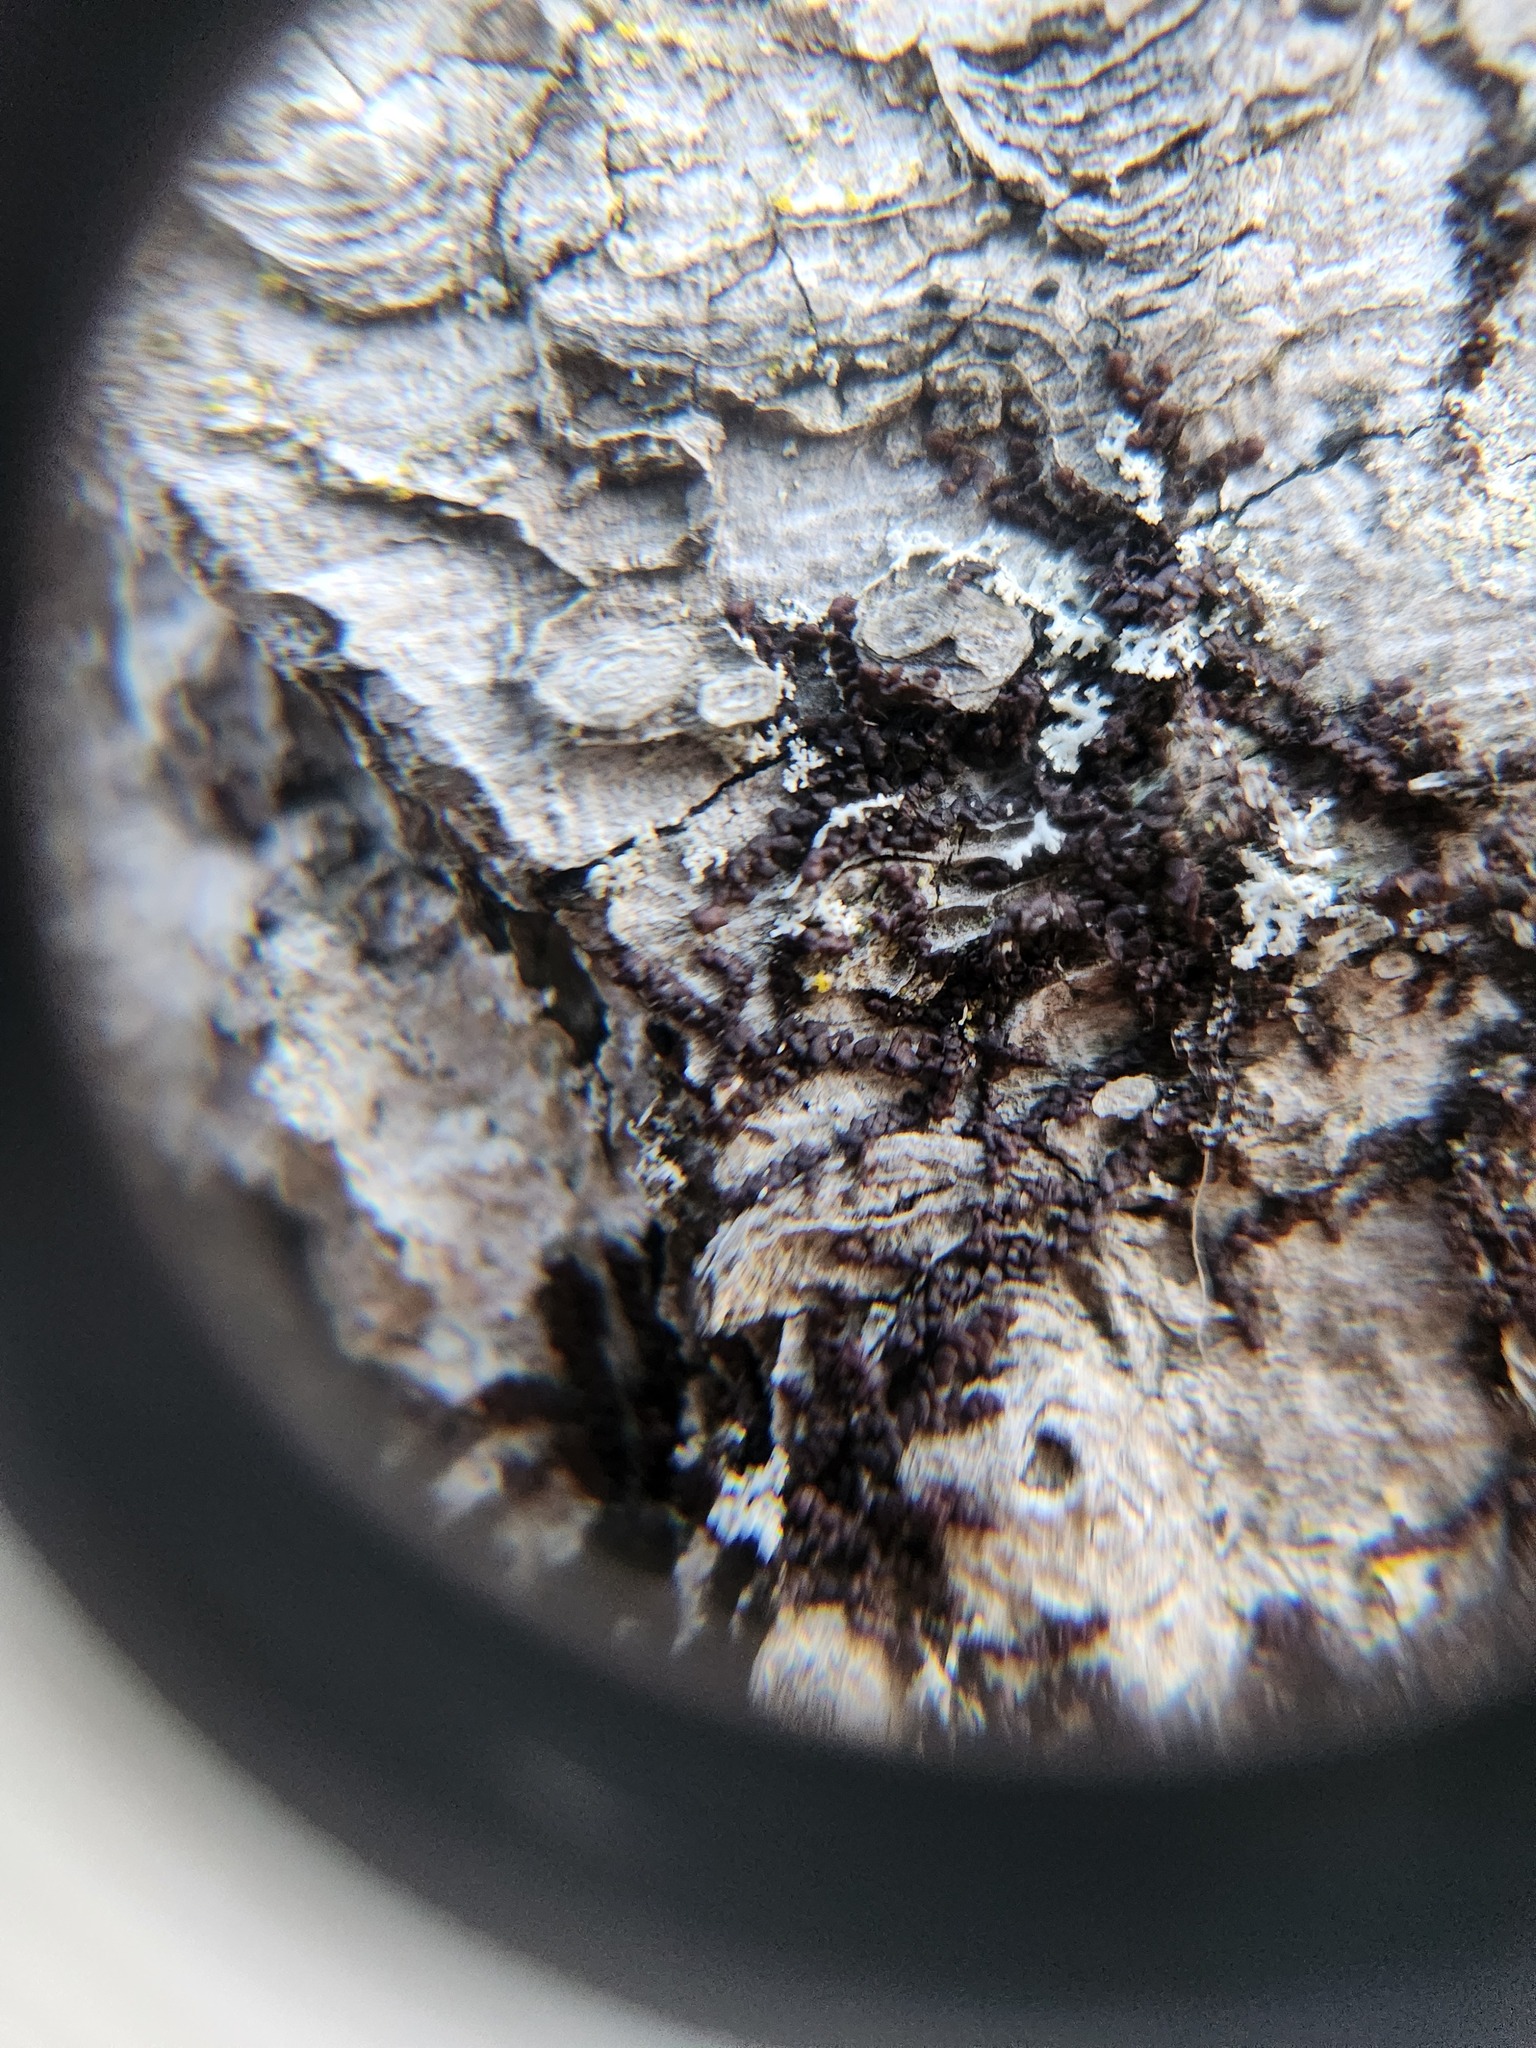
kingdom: Plantae
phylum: Marchantiophyta
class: Jungermanniopsida
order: Porellales
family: Frullaniaceae
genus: Frullania
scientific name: Frullania eboracensis
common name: New york scalewort
